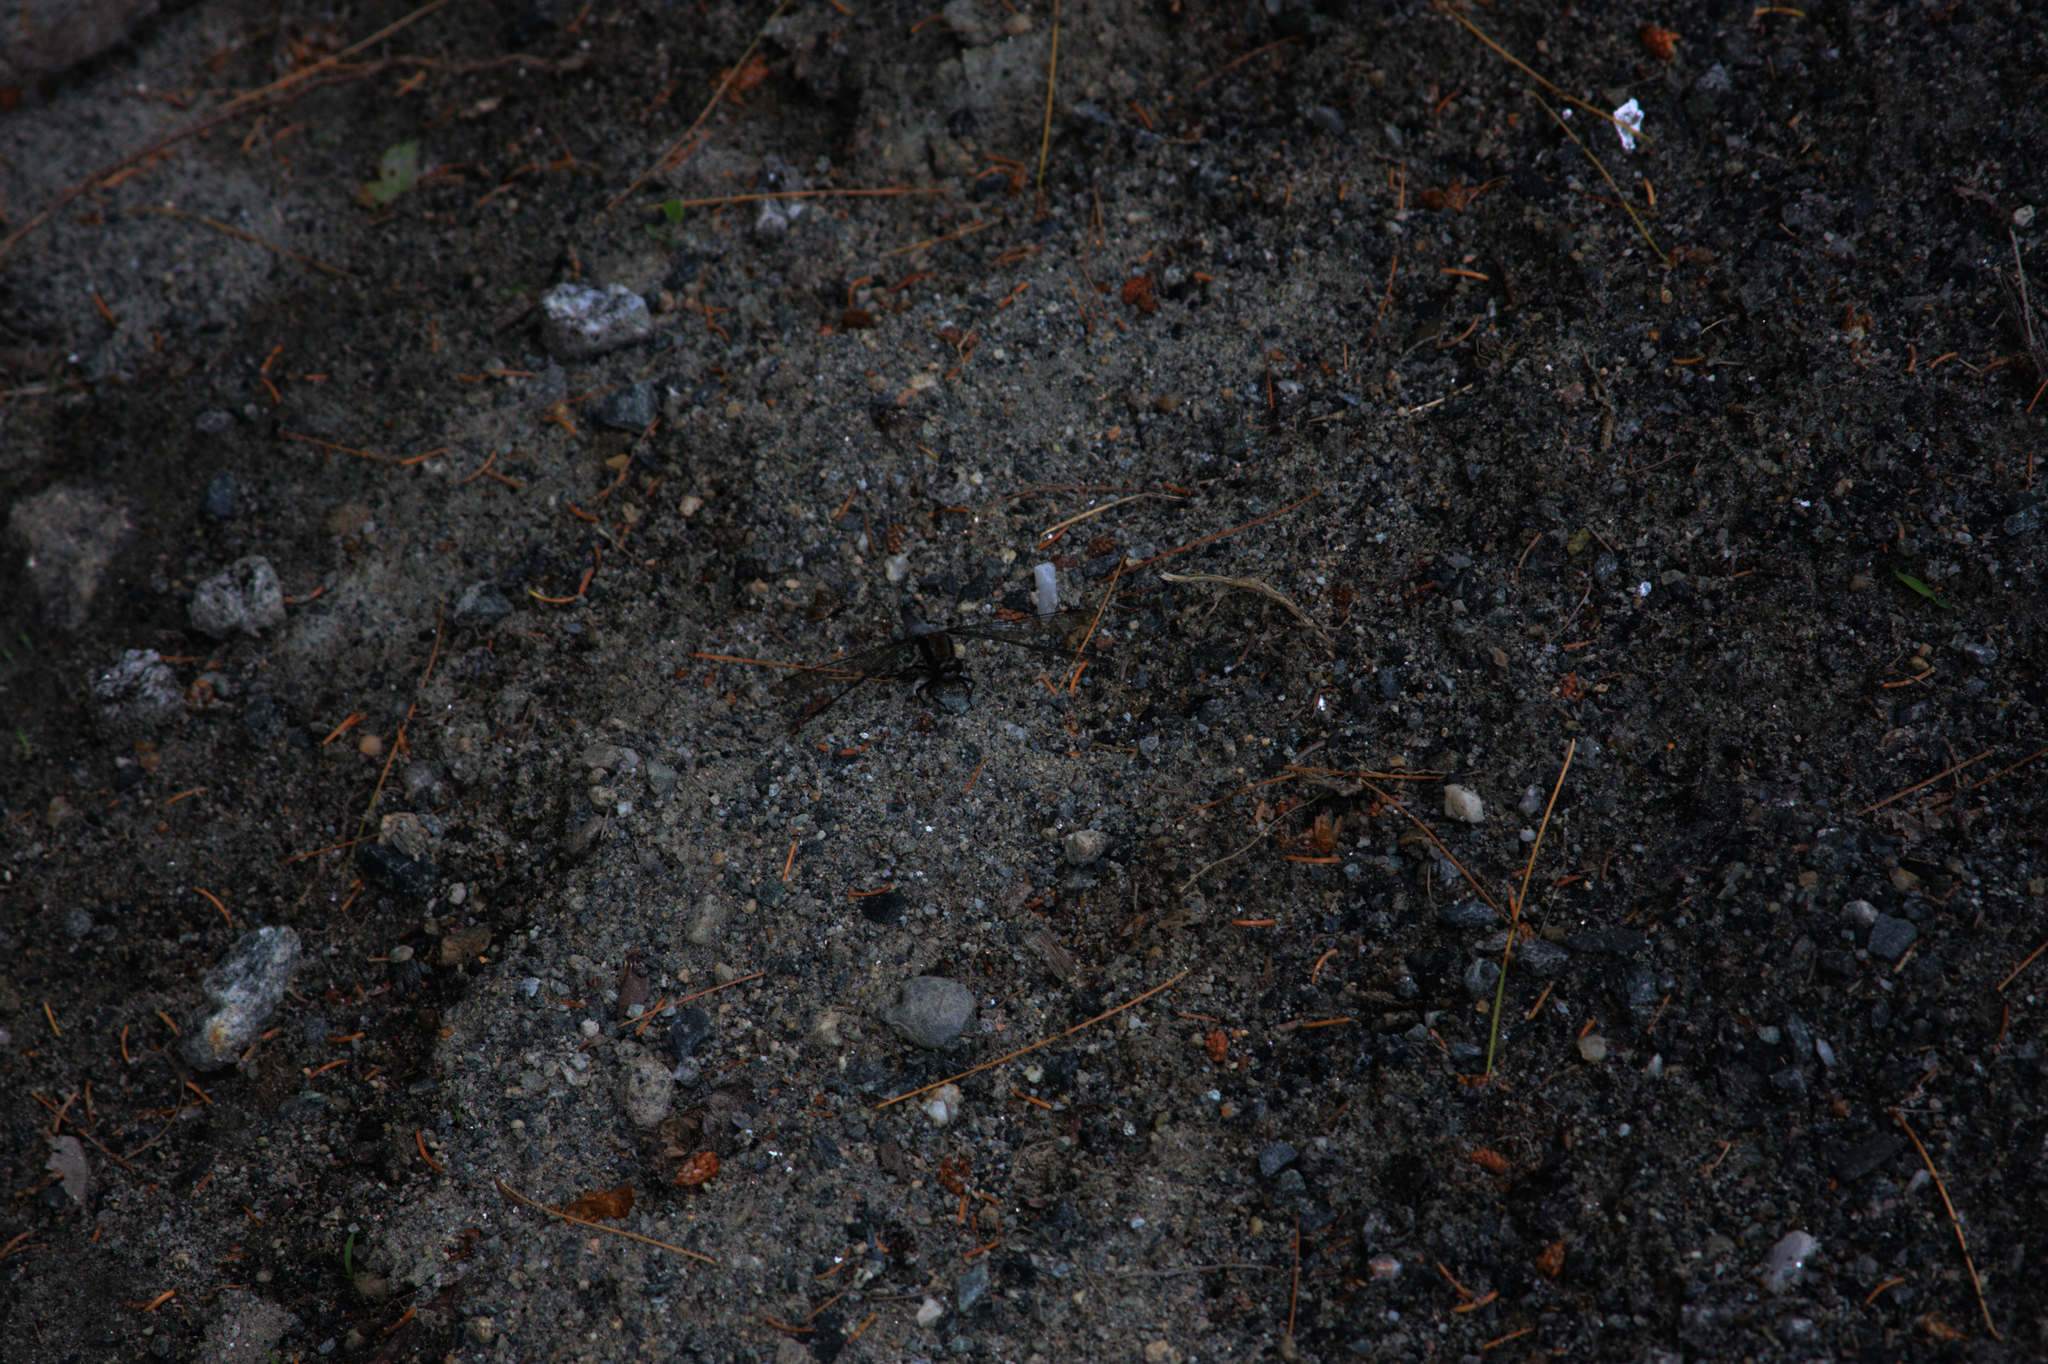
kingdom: Animalia
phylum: Arthropoda
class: Insecta
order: Odonata
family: Libellulidae
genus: Ladona
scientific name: Ladona julia
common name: Chalk-fronted corporal
